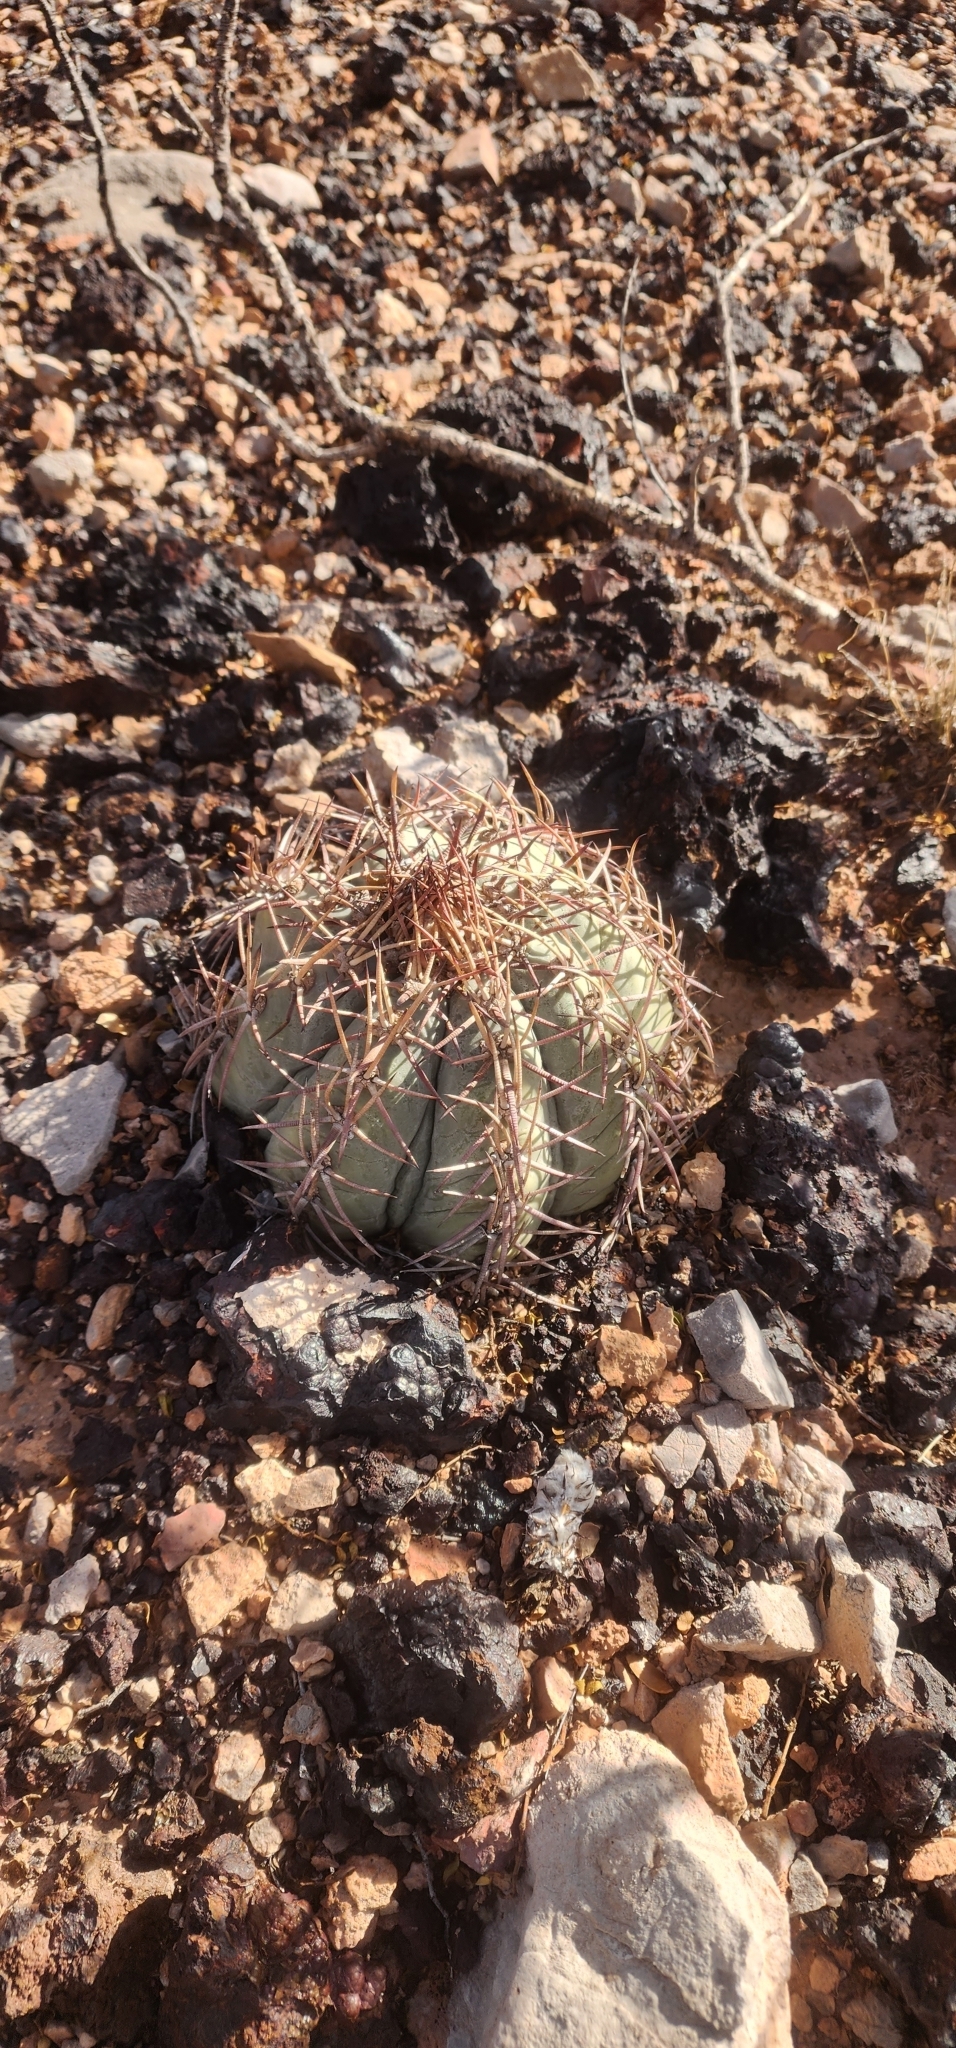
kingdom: Plantae
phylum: Tracheophyta
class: Magnoliopsida
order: Caryophyllales
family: Cactaceae
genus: Echinocactus
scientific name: Echinocactus horizonthalonius
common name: Devilshead
